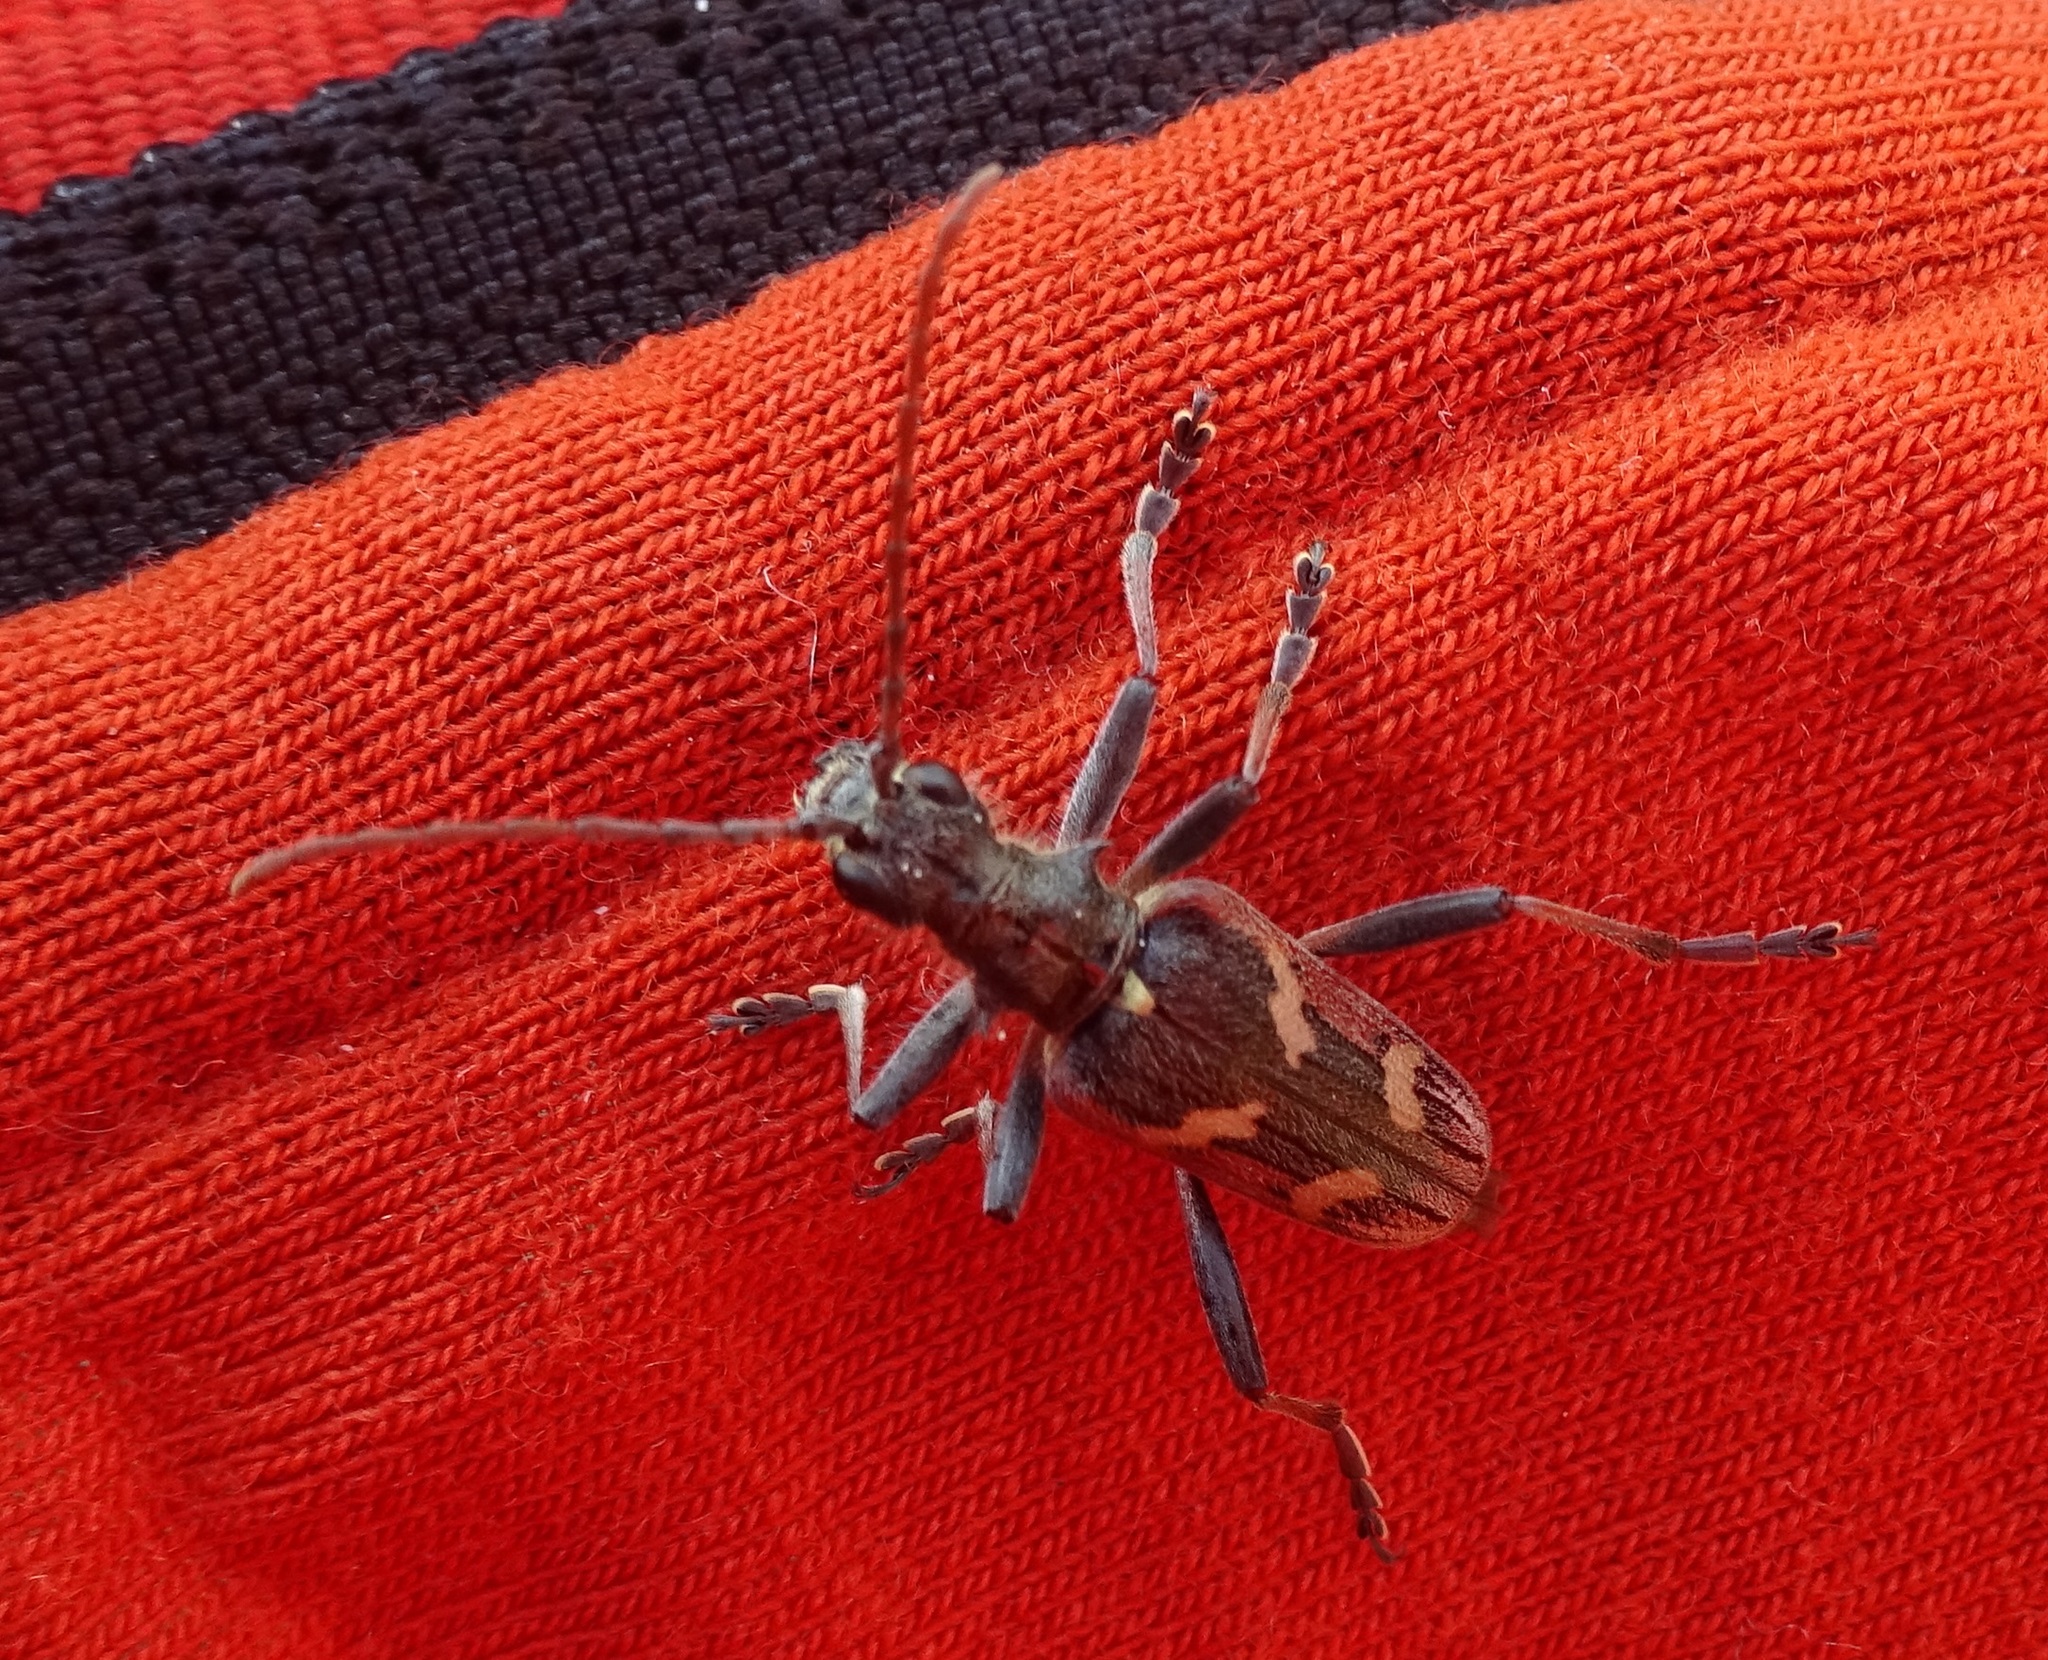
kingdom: Animalia
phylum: Arthropoda
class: Insecta
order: Coleoptera
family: Cerambycidae
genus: Rhagium
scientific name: Rhagium bifasciatum
